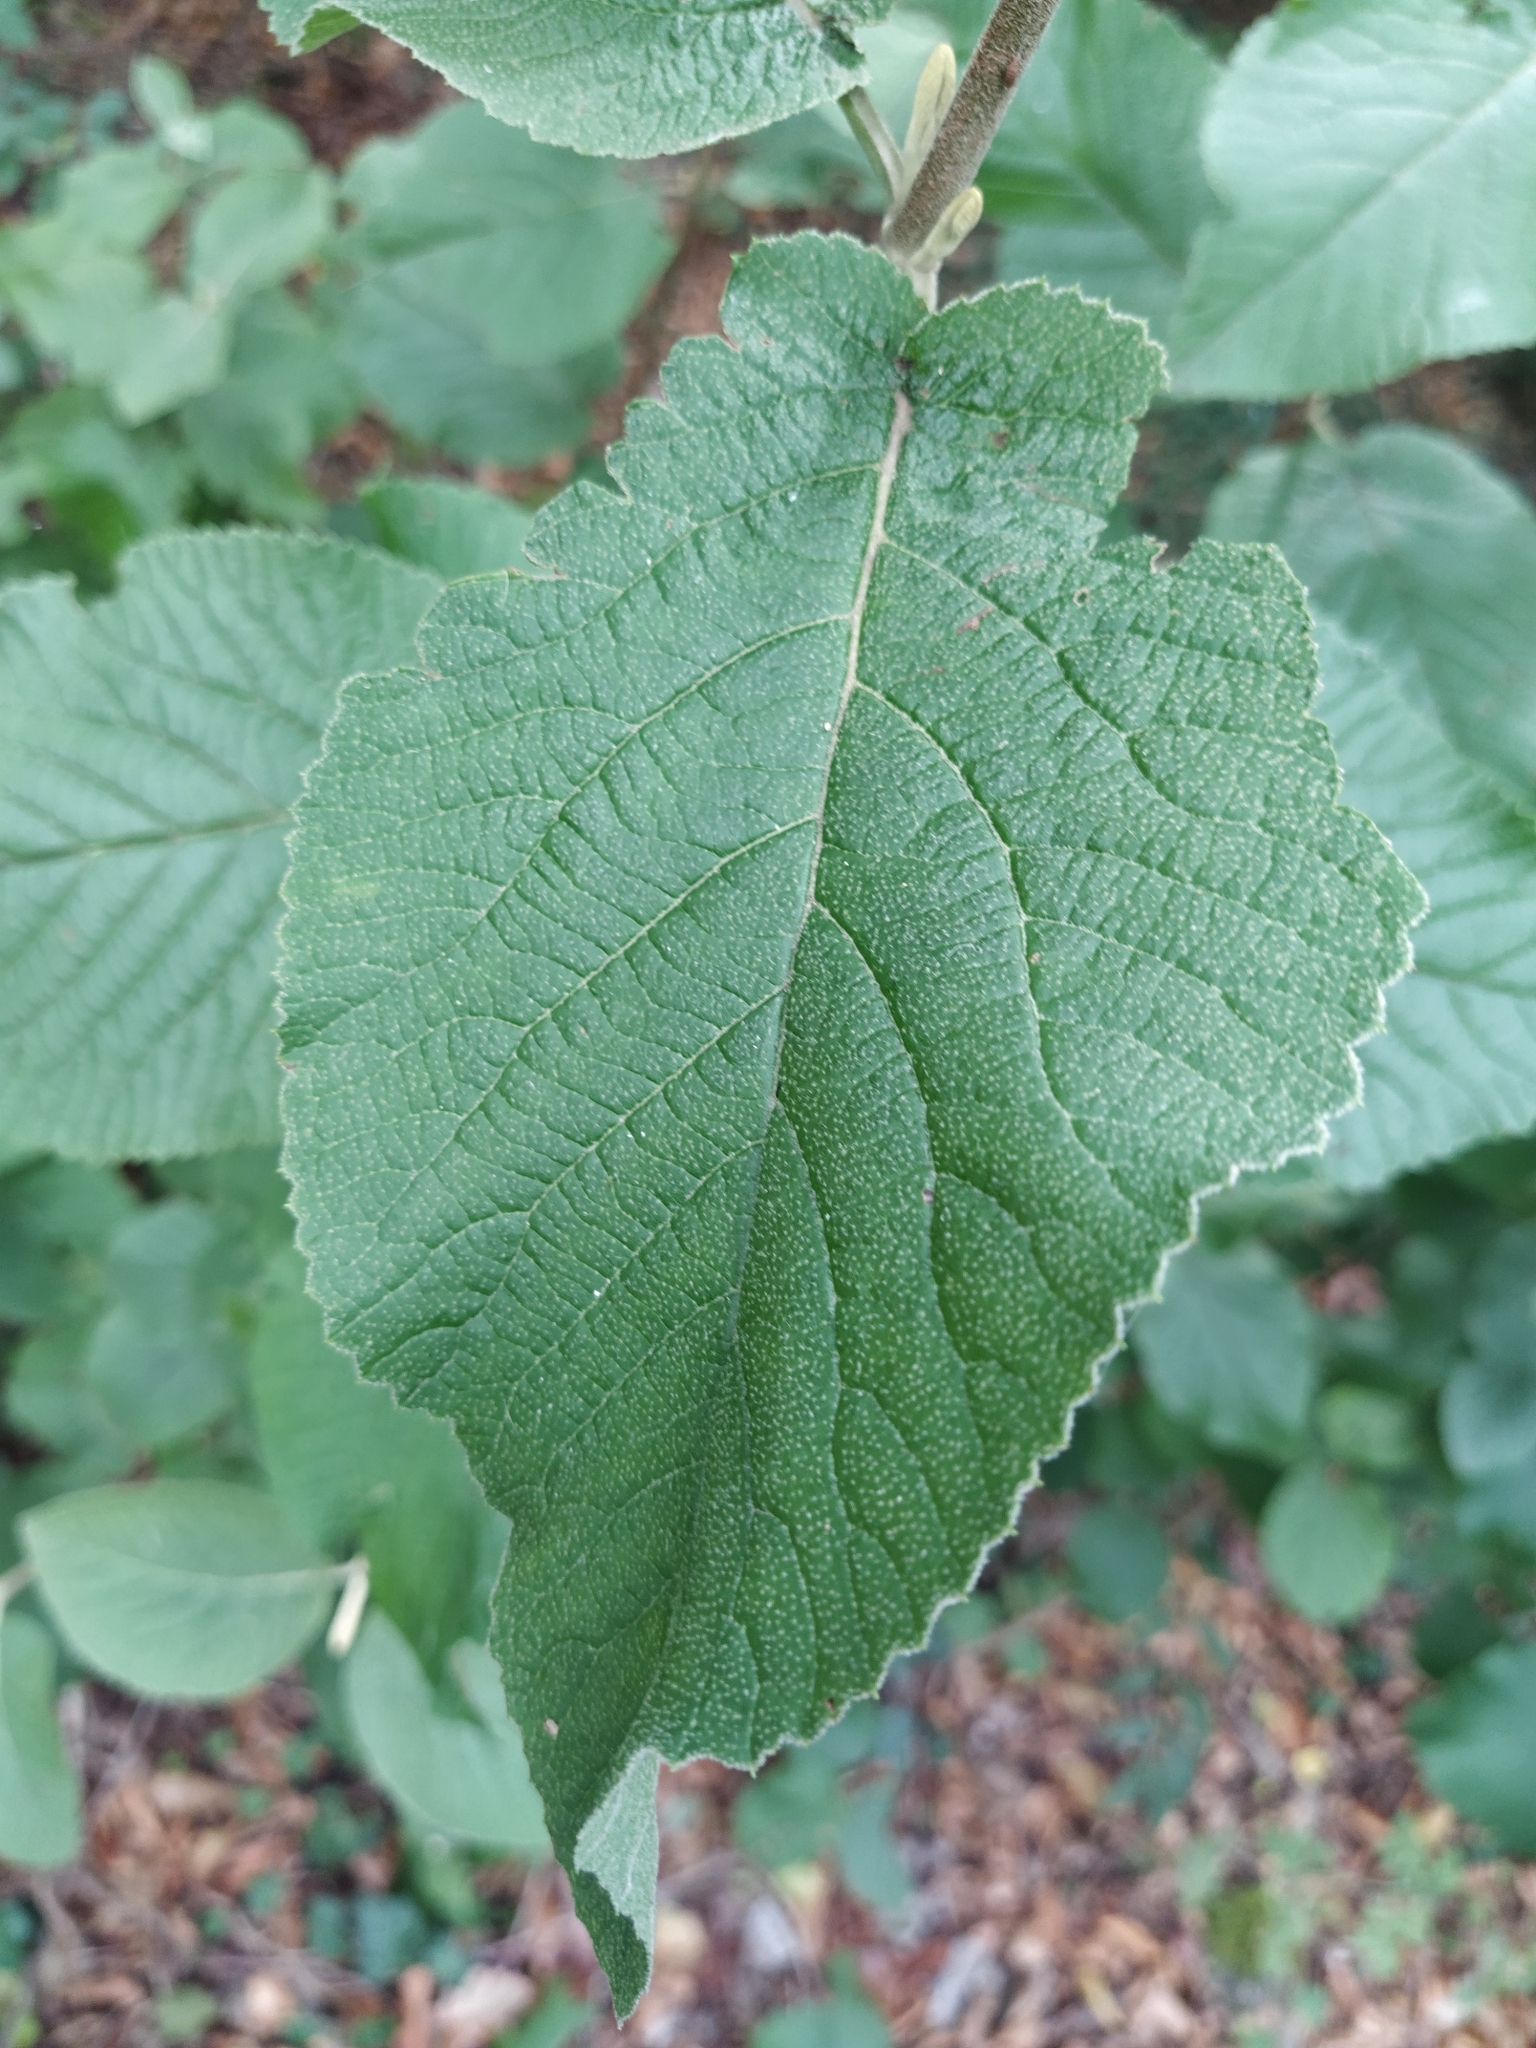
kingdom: Plantae
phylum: Tracheophyta
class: Magnoliopsida
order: Dipsacales
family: Viburnaceae
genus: Viburnum
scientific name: Viburnum lantana
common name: Wayfaring tree
